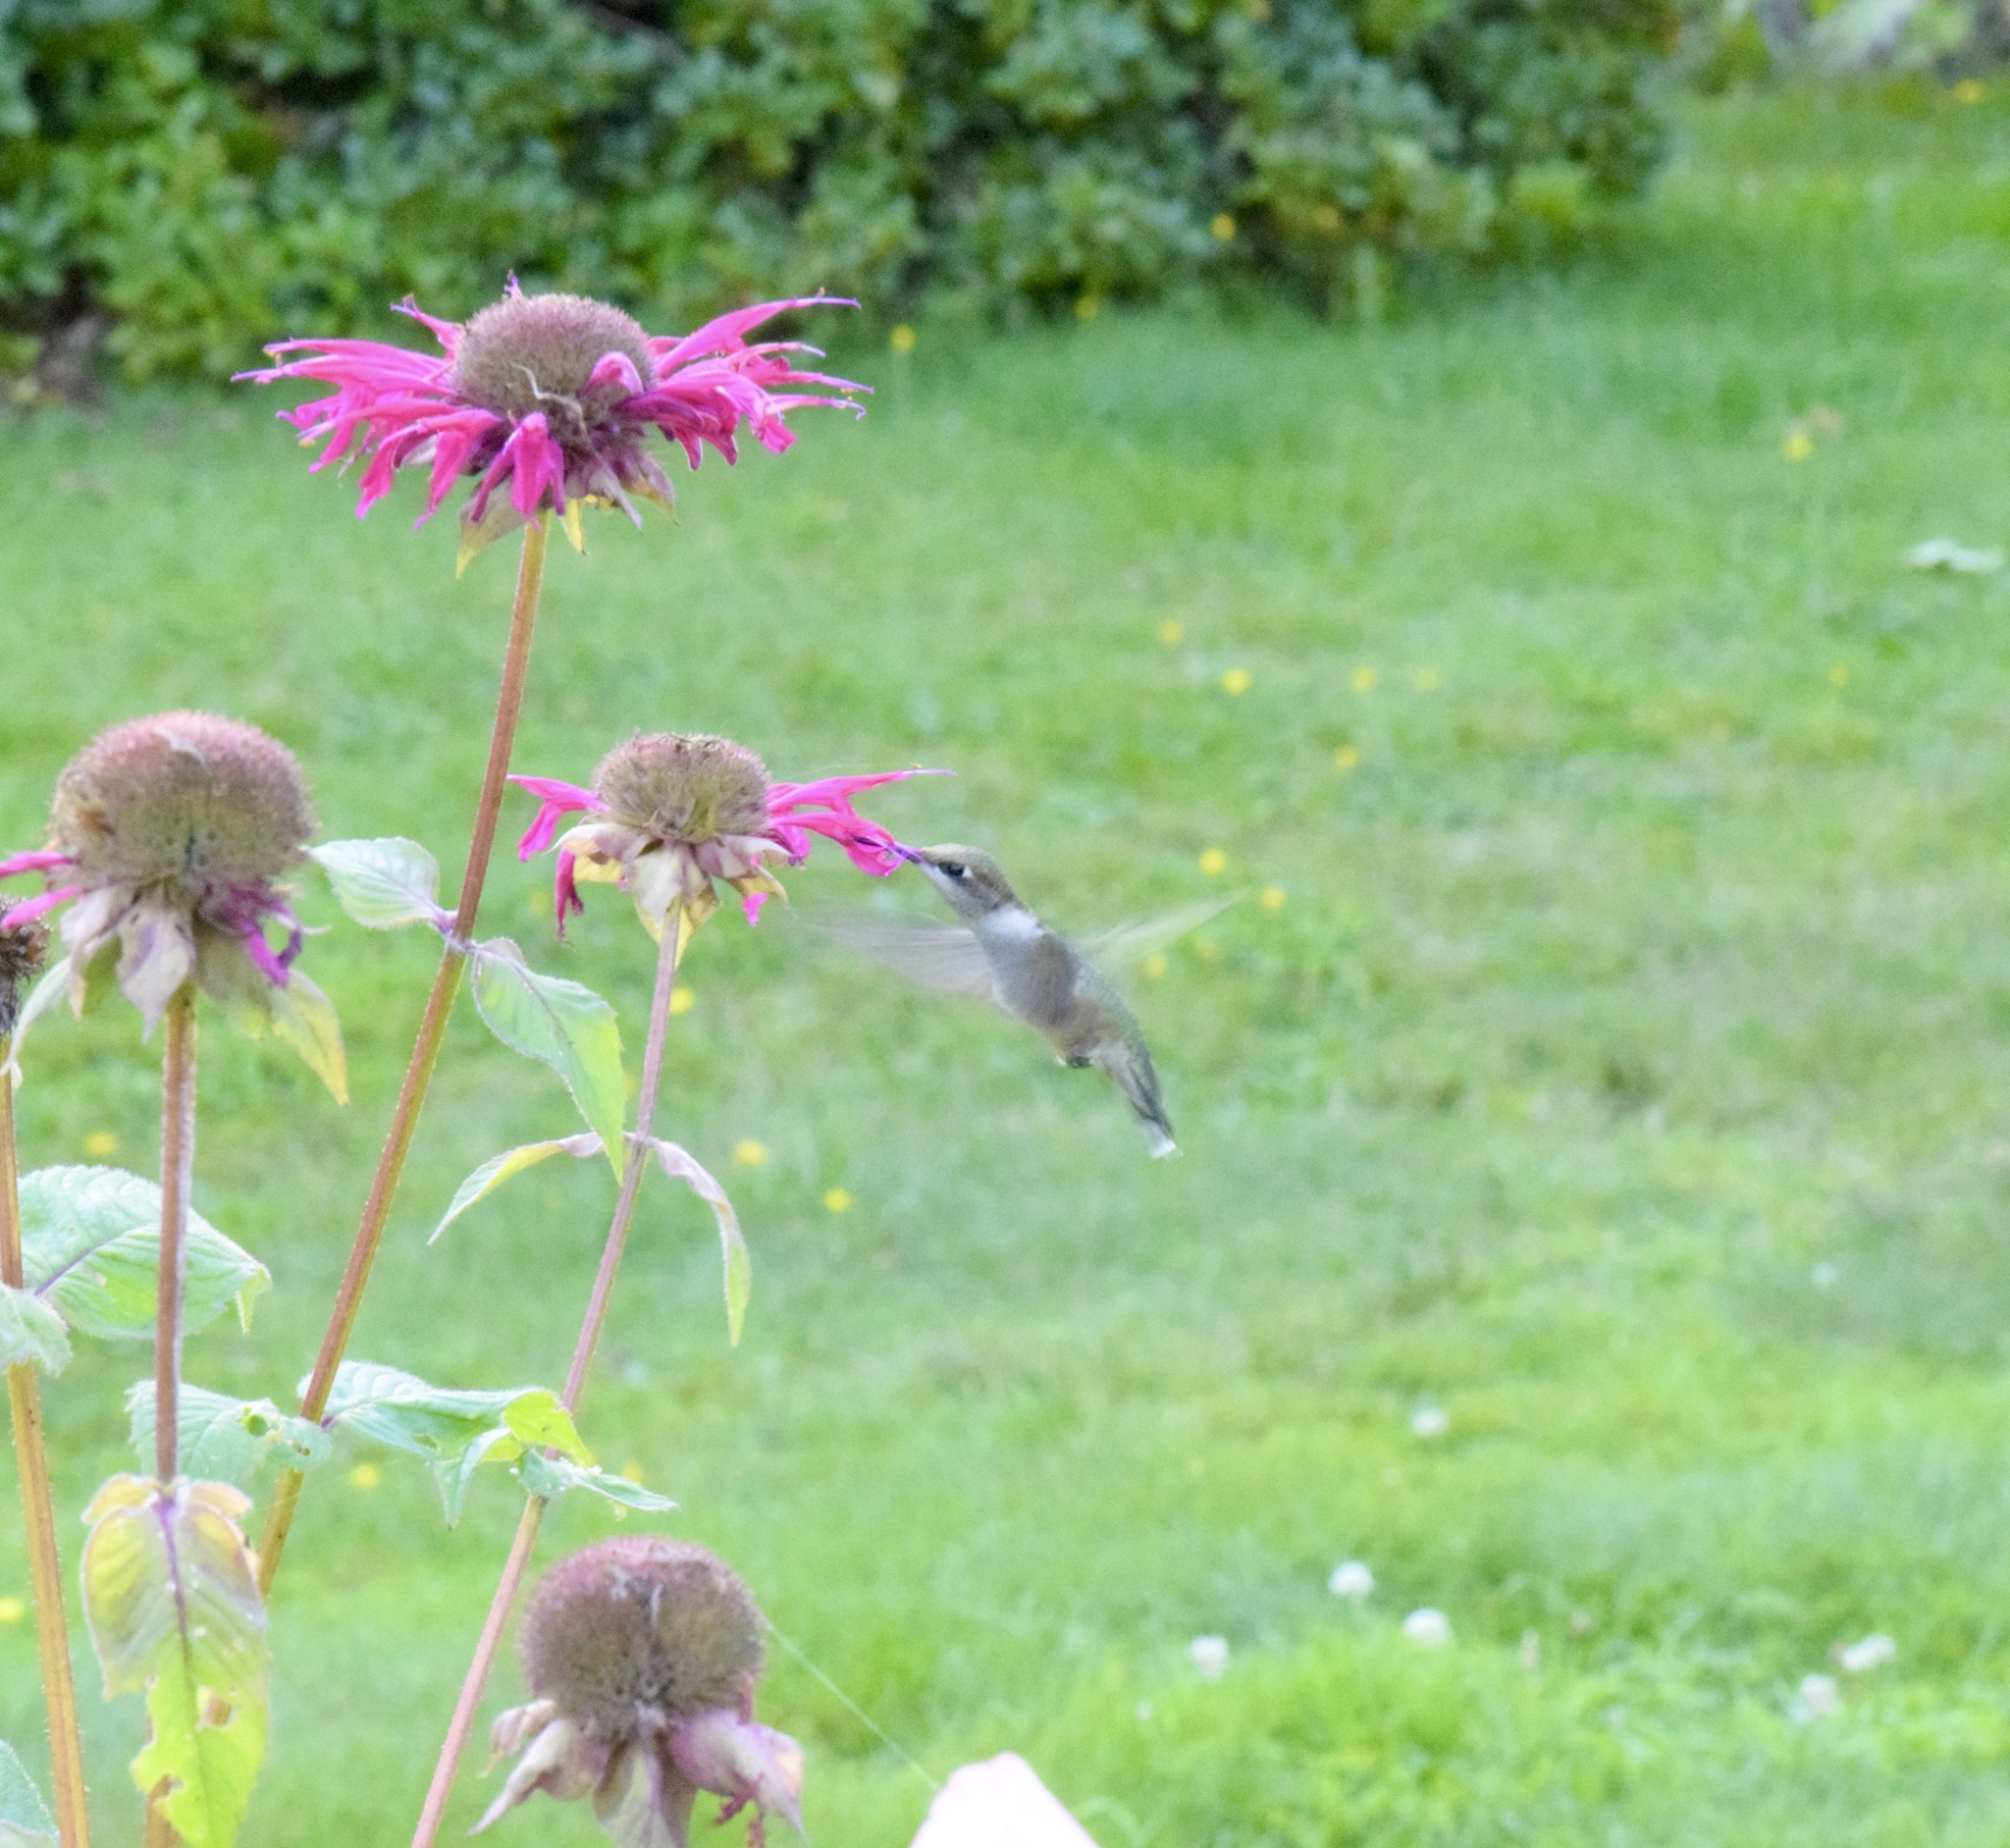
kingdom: Animalia
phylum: Chordata
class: Aves
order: Apodiformes
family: Trochilidae
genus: Archilochus
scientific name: Archilochus colubris
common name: Ruby-throated hummingbird
